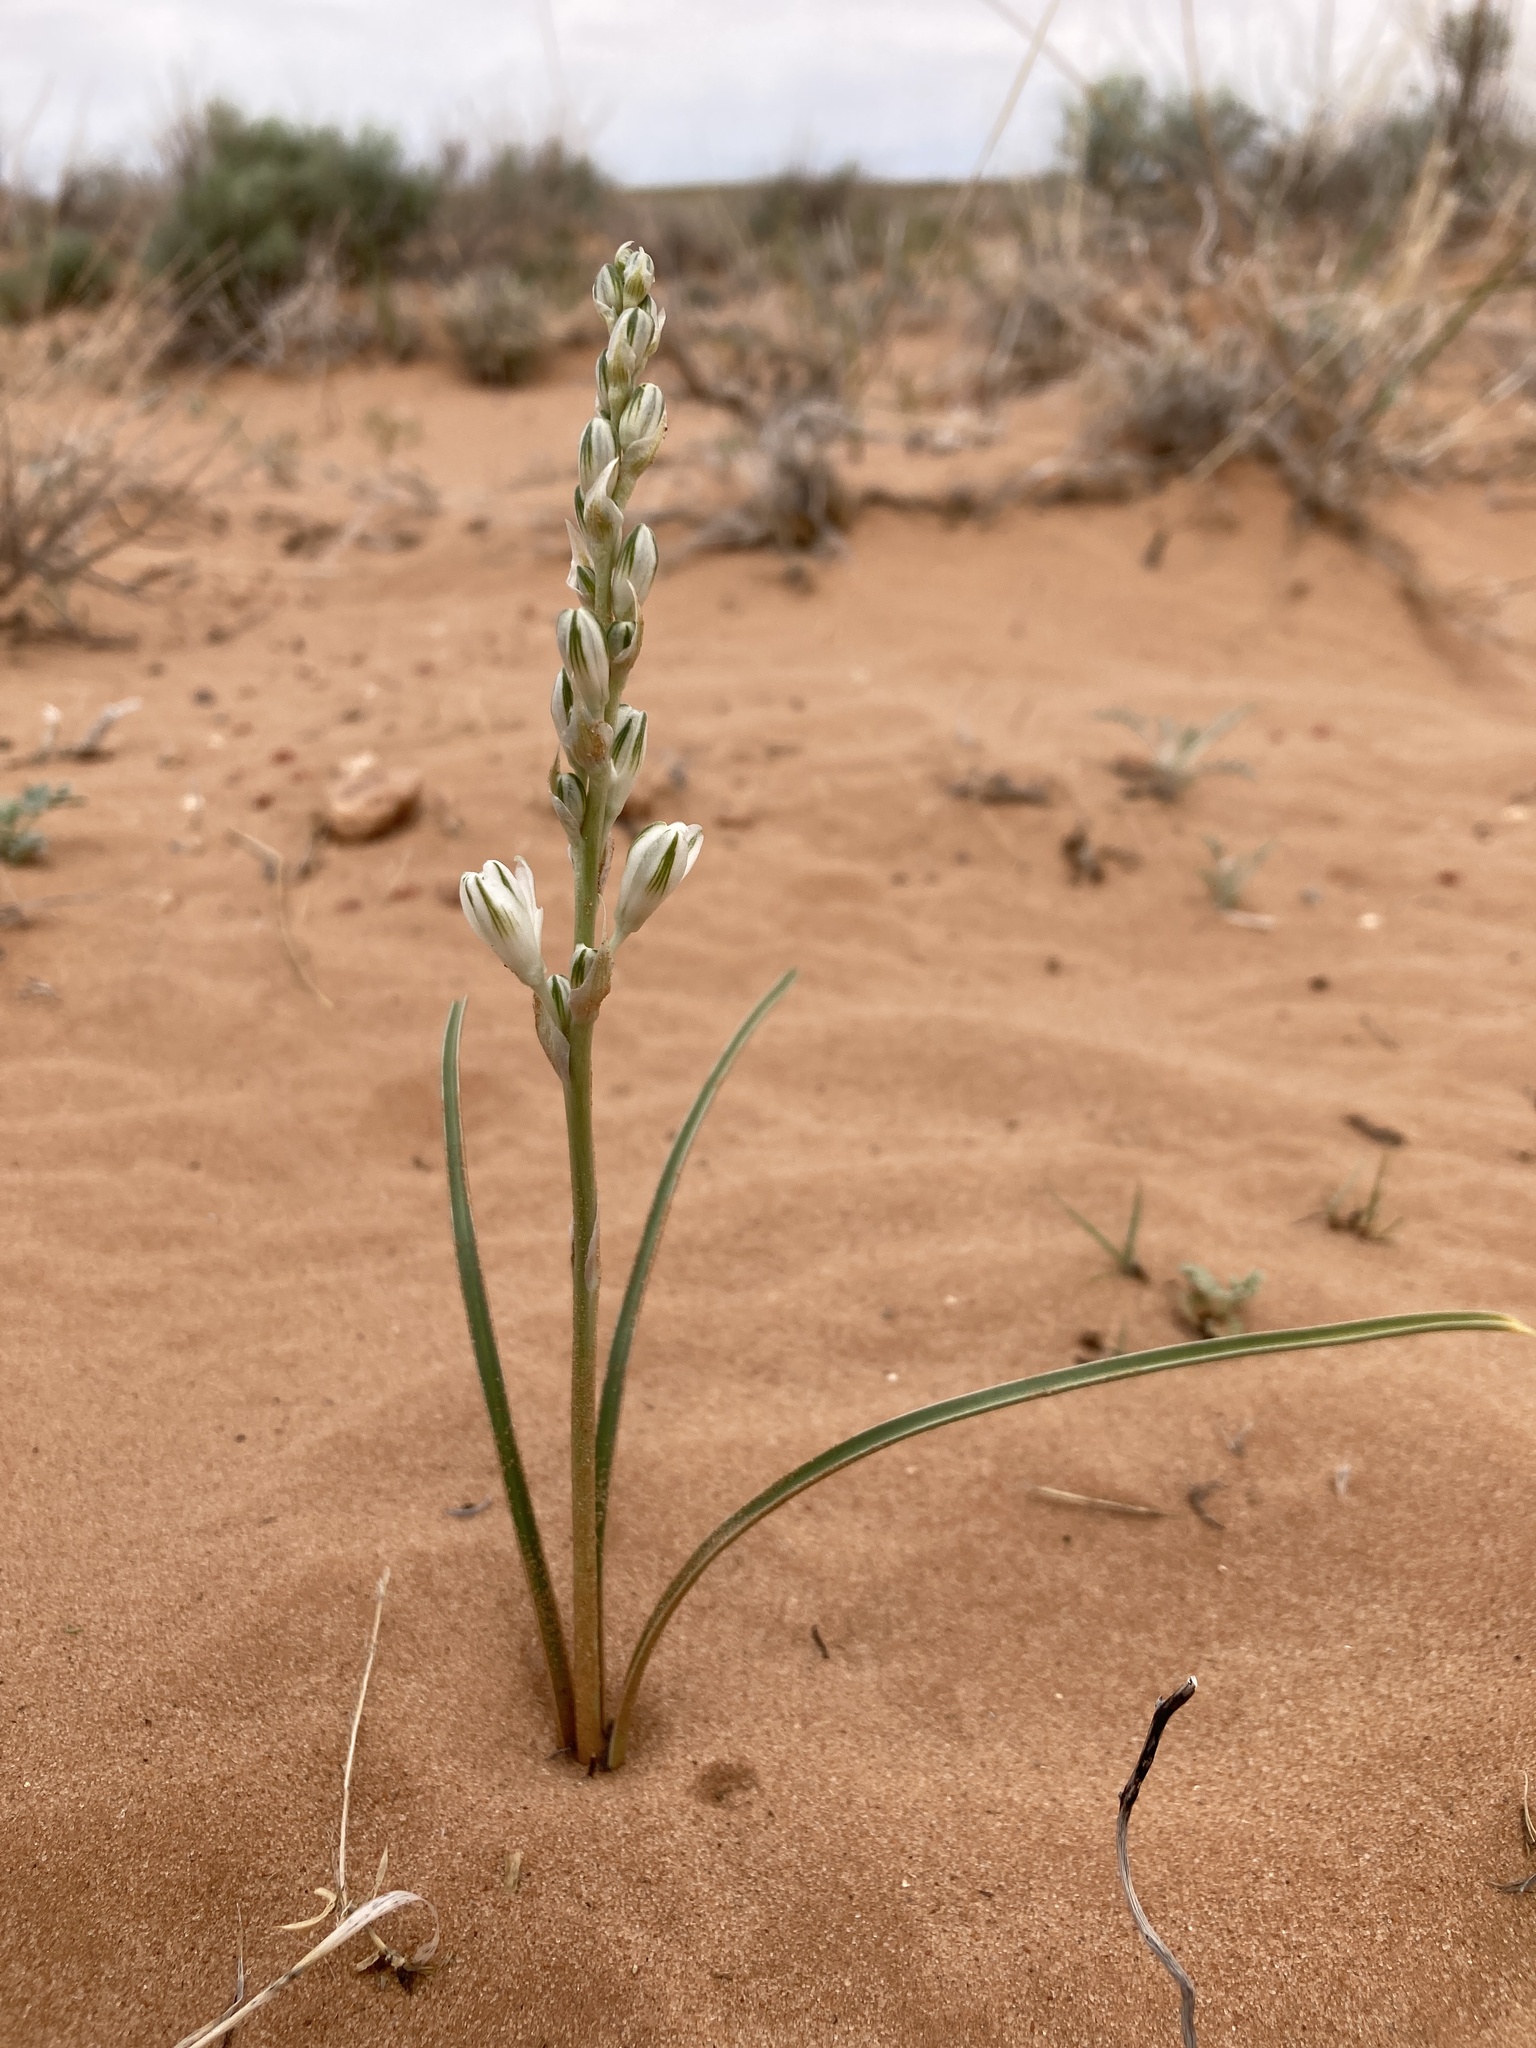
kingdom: Plantae
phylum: Tracheophyta
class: Liliopsida
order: Asparagales
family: Asparagaceae
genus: Eremocrinum
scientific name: Eremocrinum albomarginatum
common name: Sand-lily
